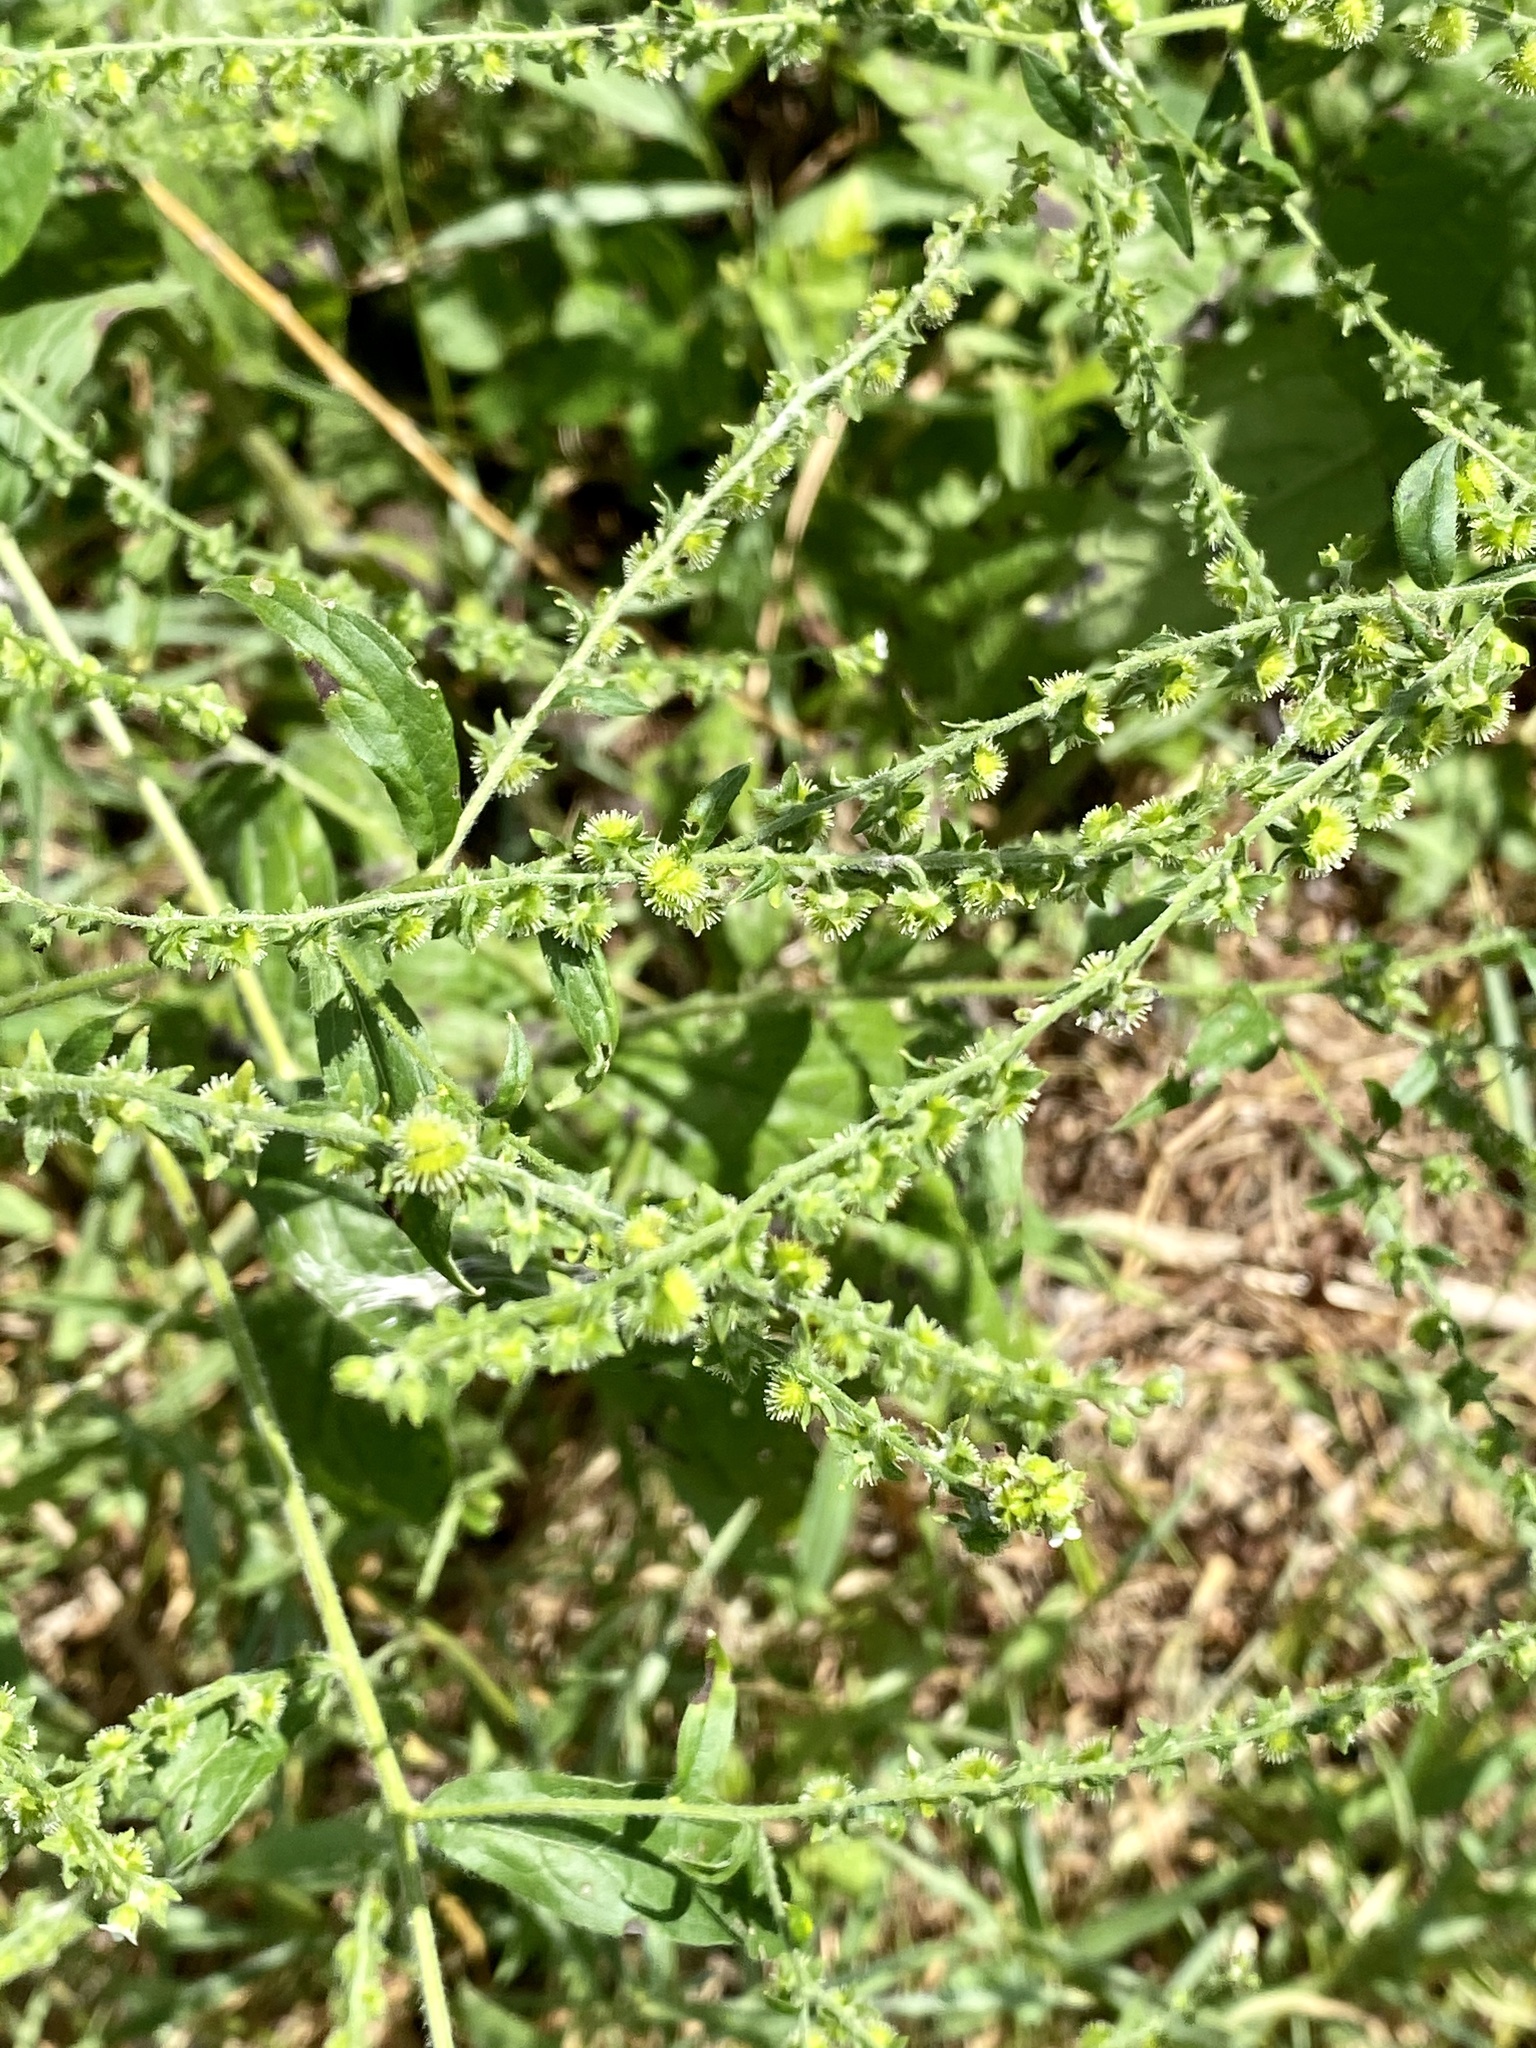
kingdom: Plantae
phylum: Tracheophyta
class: Magnoliopsida
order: Boraginales
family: Boraginaceae
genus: Hackelia
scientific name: Hackelia virginiana
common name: Beggar's-lice
